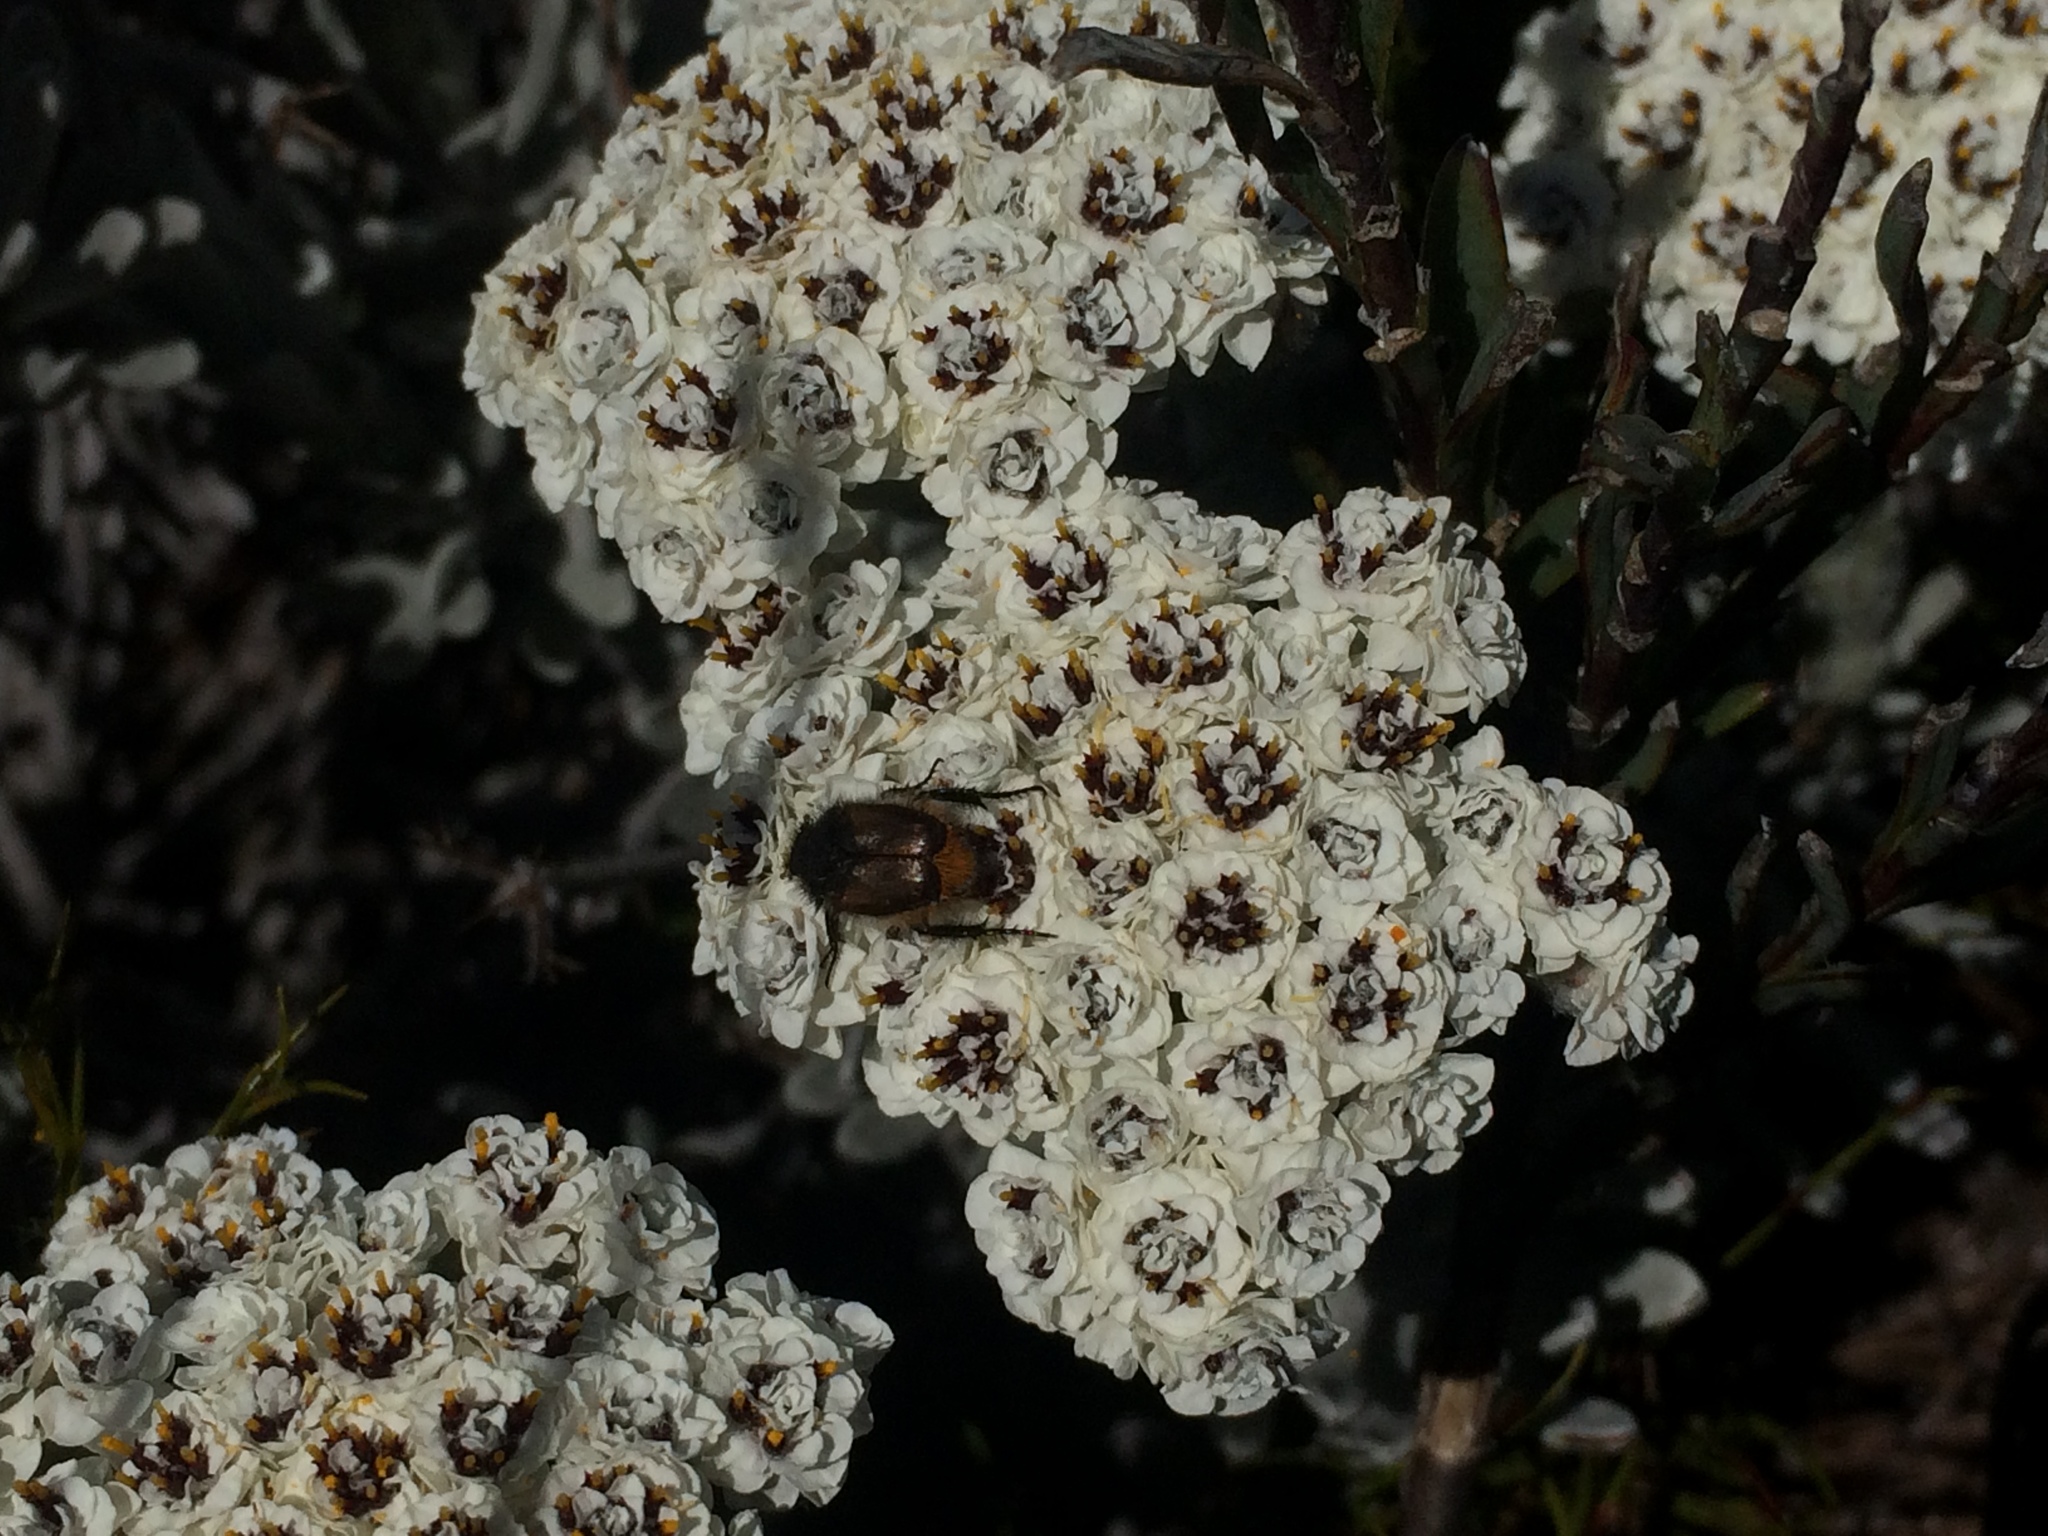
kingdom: Plantae
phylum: Tracheophyta
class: Magnoliopsida
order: Asterales
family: Asteraceae
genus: Petalacte
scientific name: Petalacte coronata
